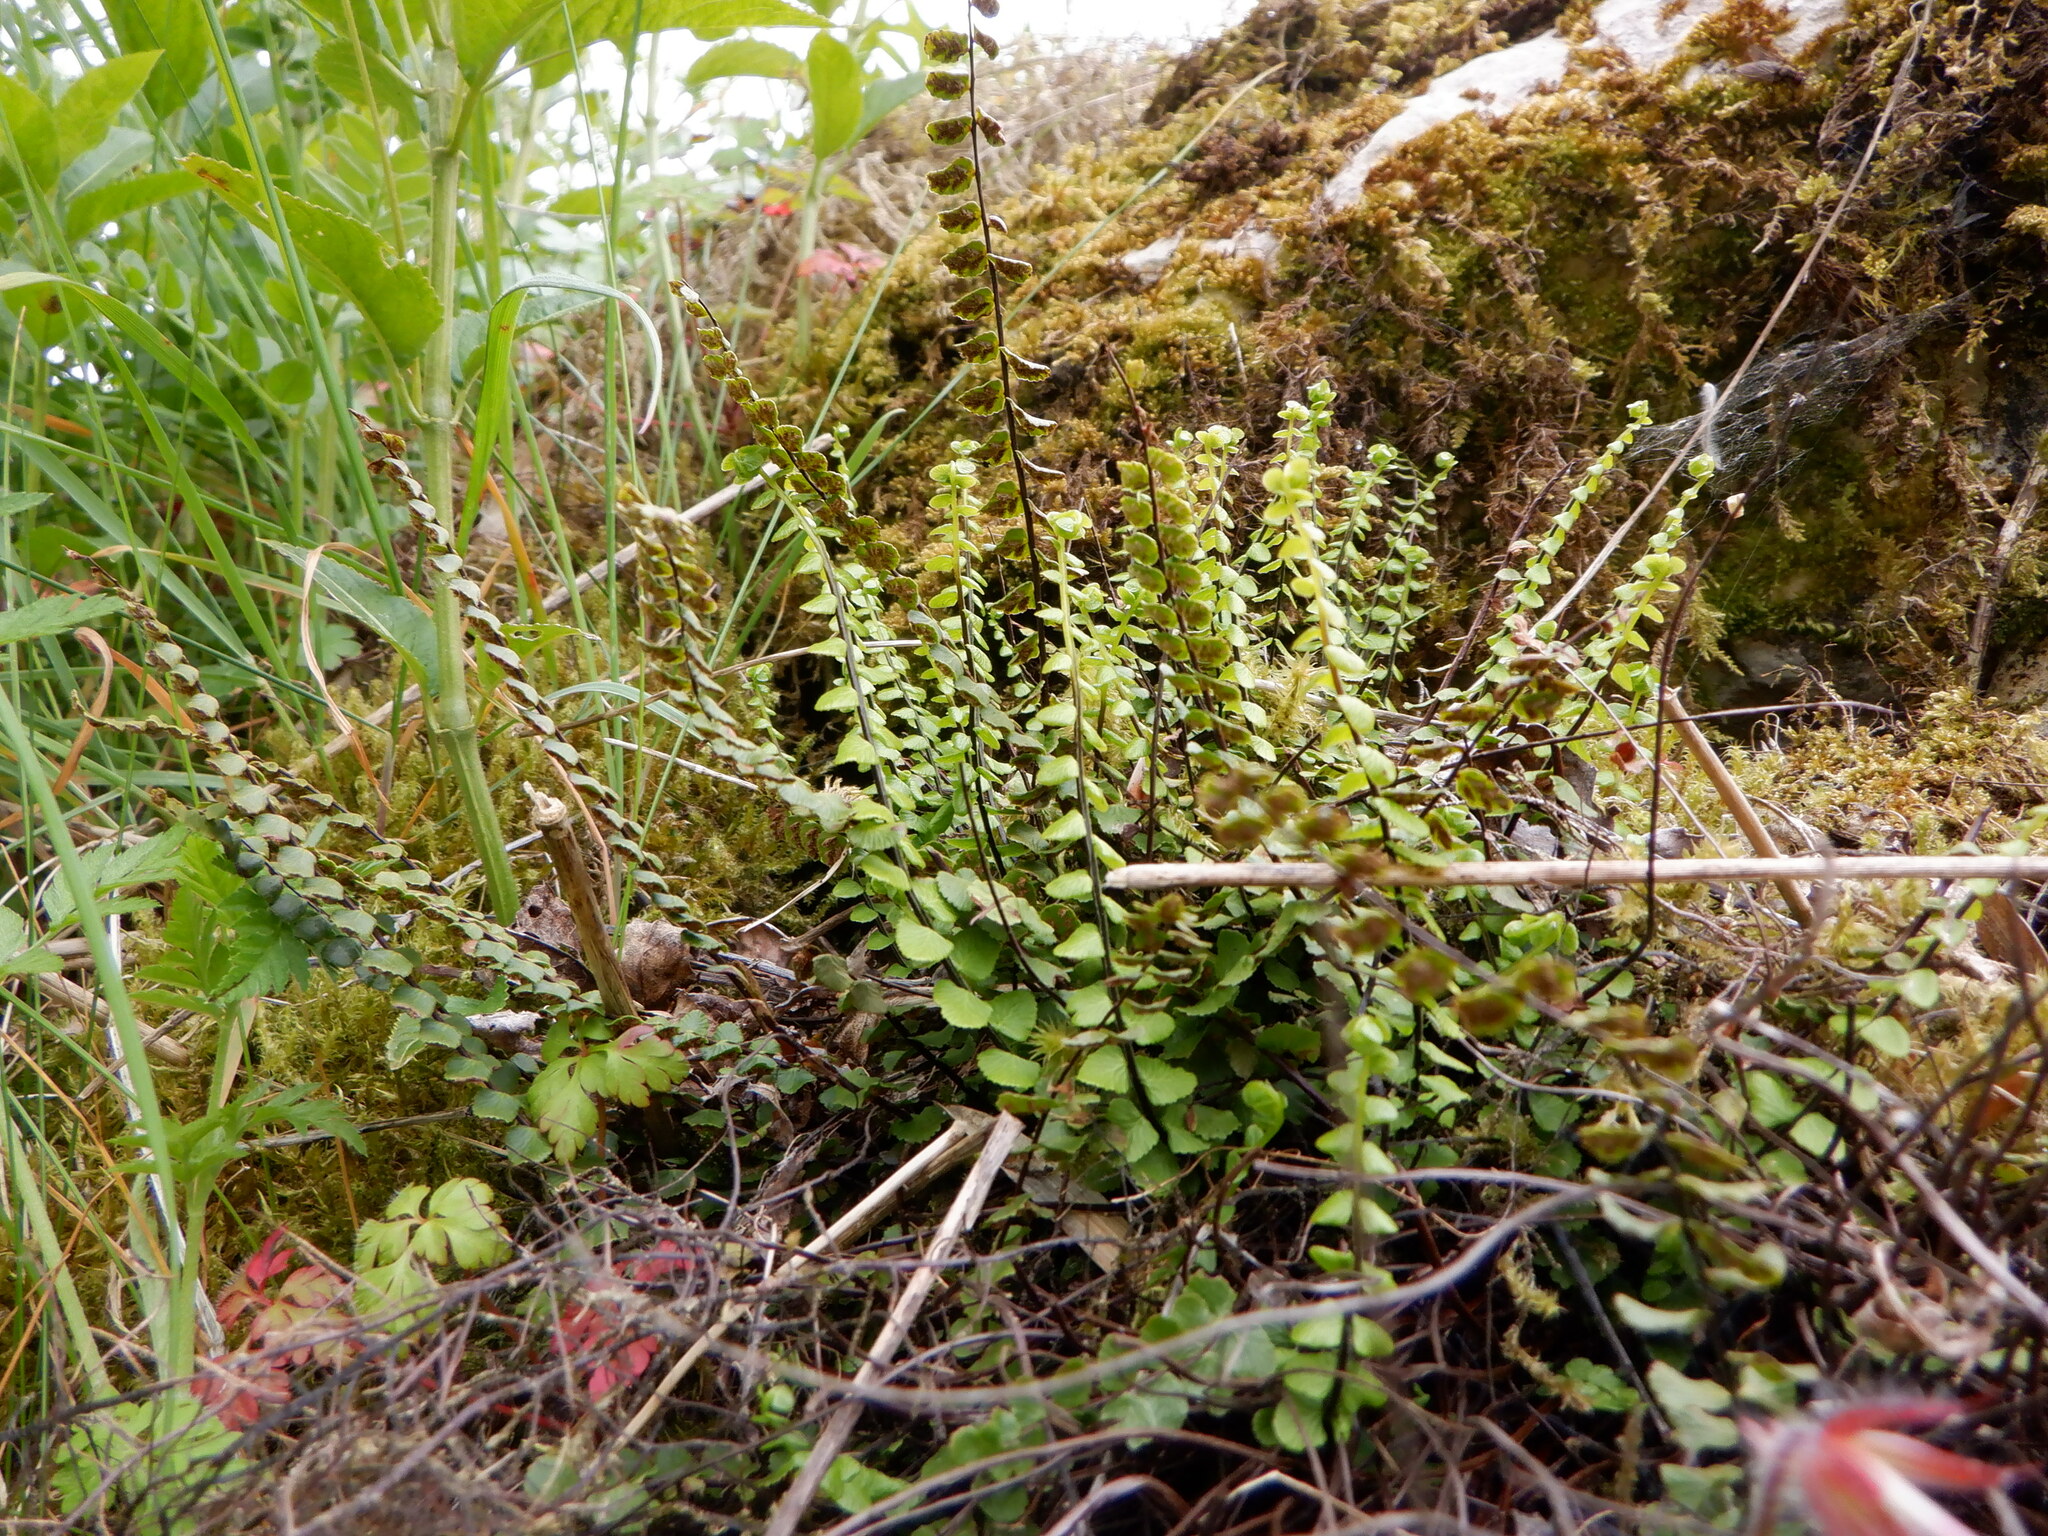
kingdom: Plantae
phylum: Tracheophyta
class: Polypodiopsida
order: Polypodiales
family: Aspleniaceae
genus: Asplenium
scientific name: Asplenium trichomanes
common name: Maidenhair spleenwort
